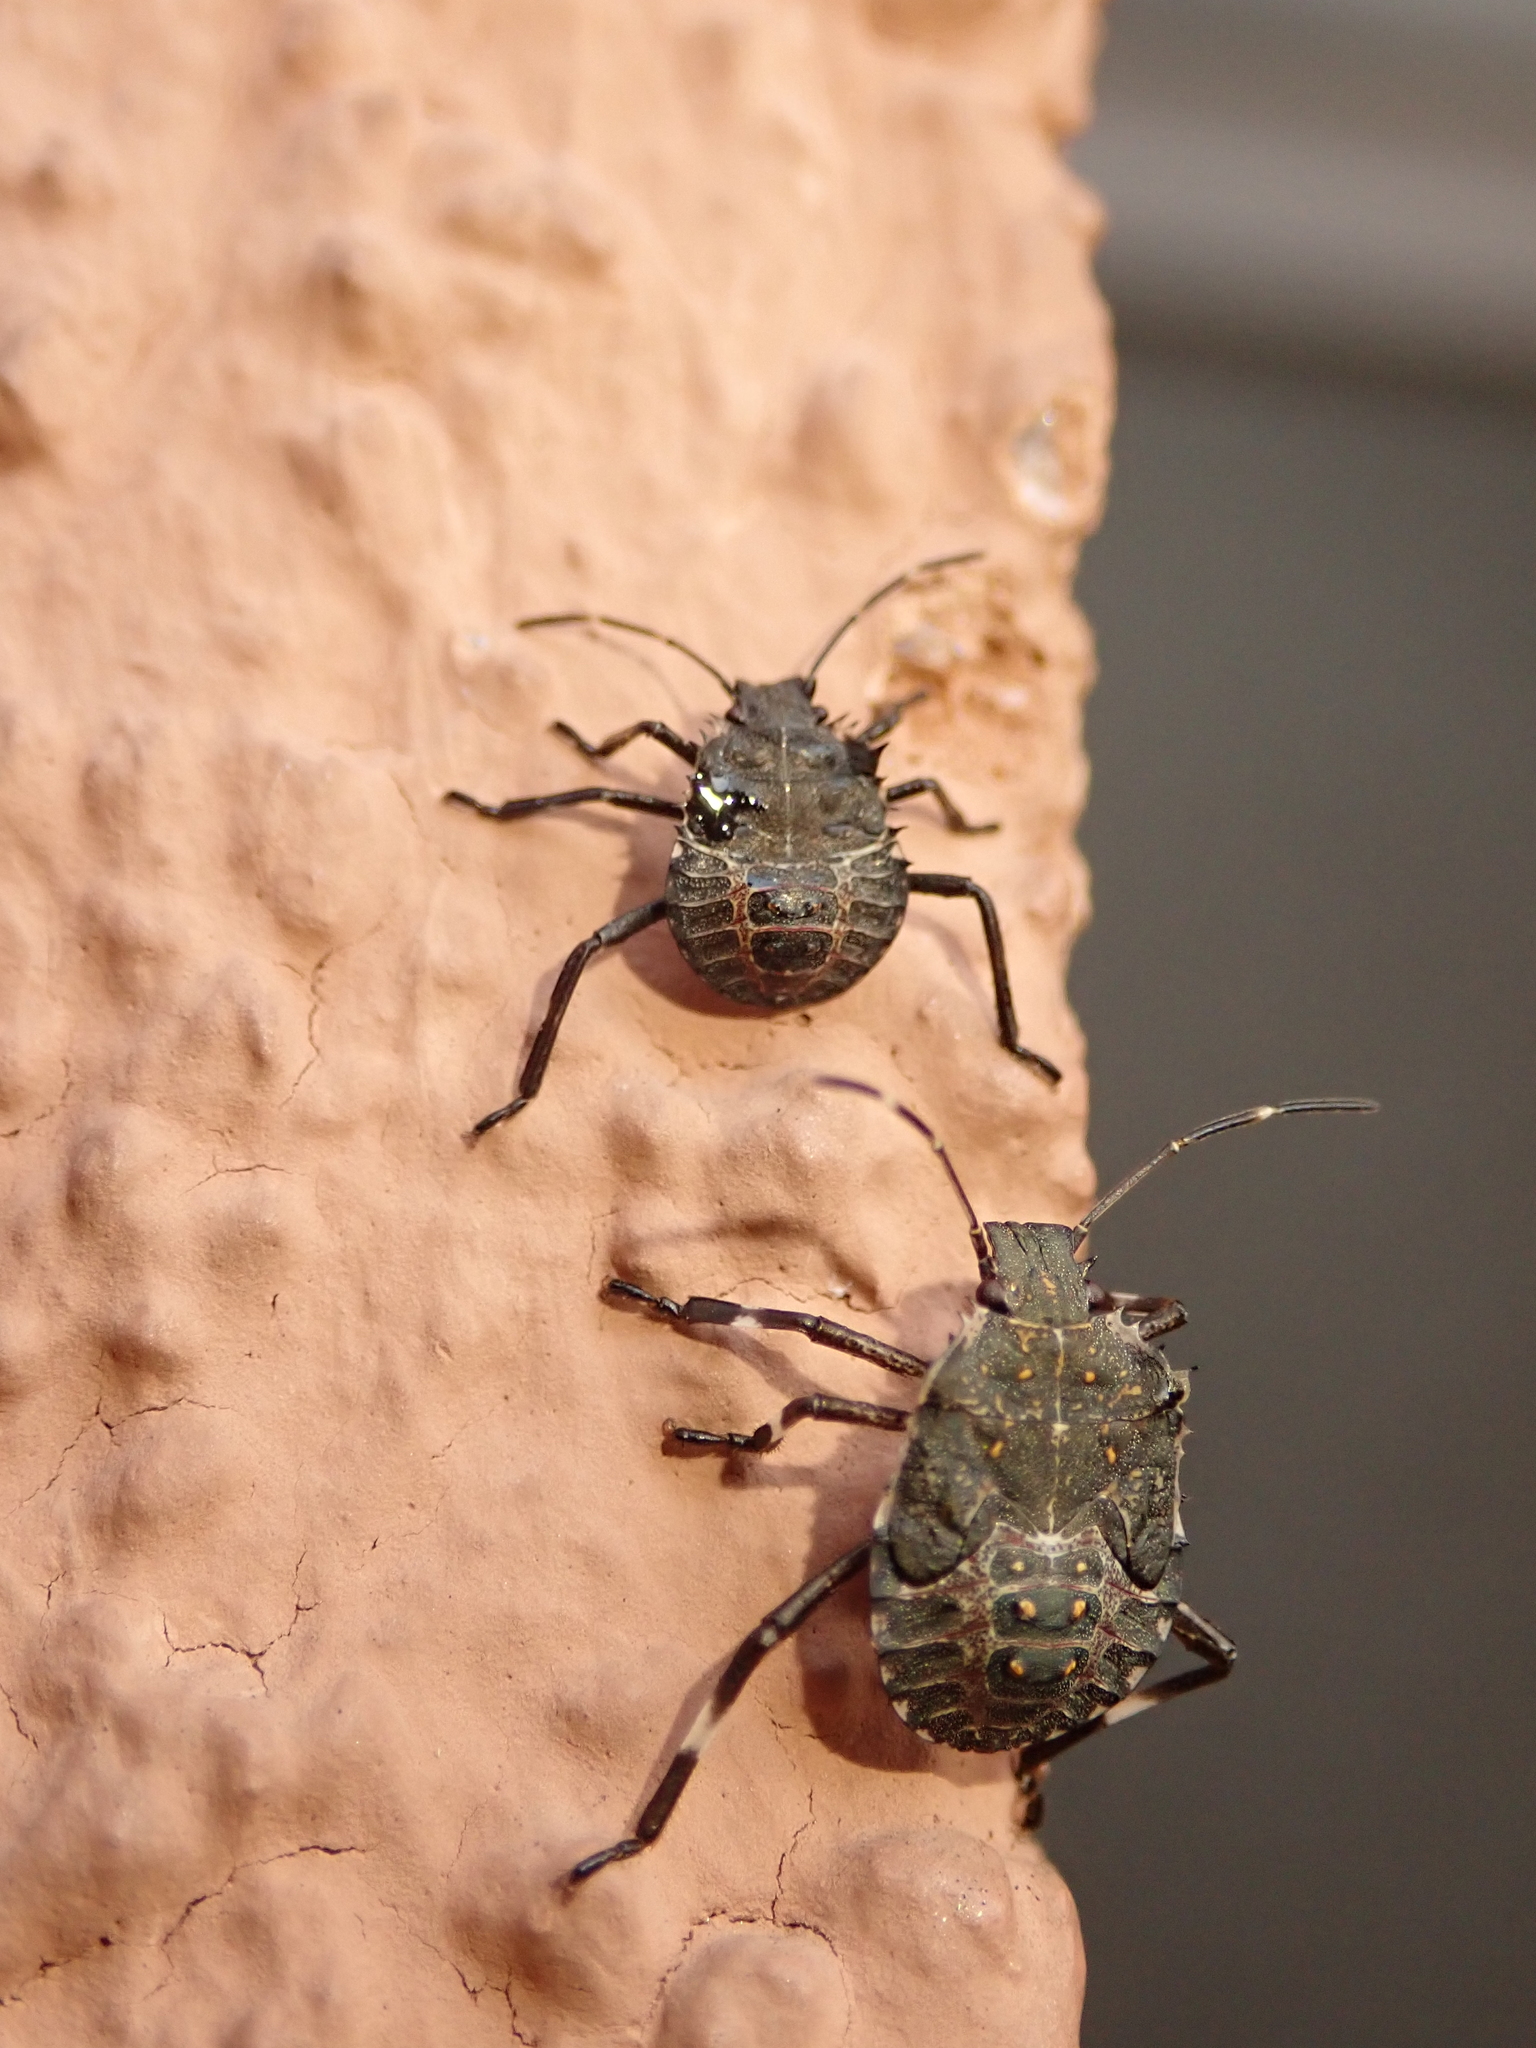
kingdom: Animalia
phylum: Arthropoda
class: Insecta
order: Hemiptera
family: Pentatomidae
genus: Halyomorpha
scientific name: Halyomorpha halys
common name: Brown marmorated stink bug
